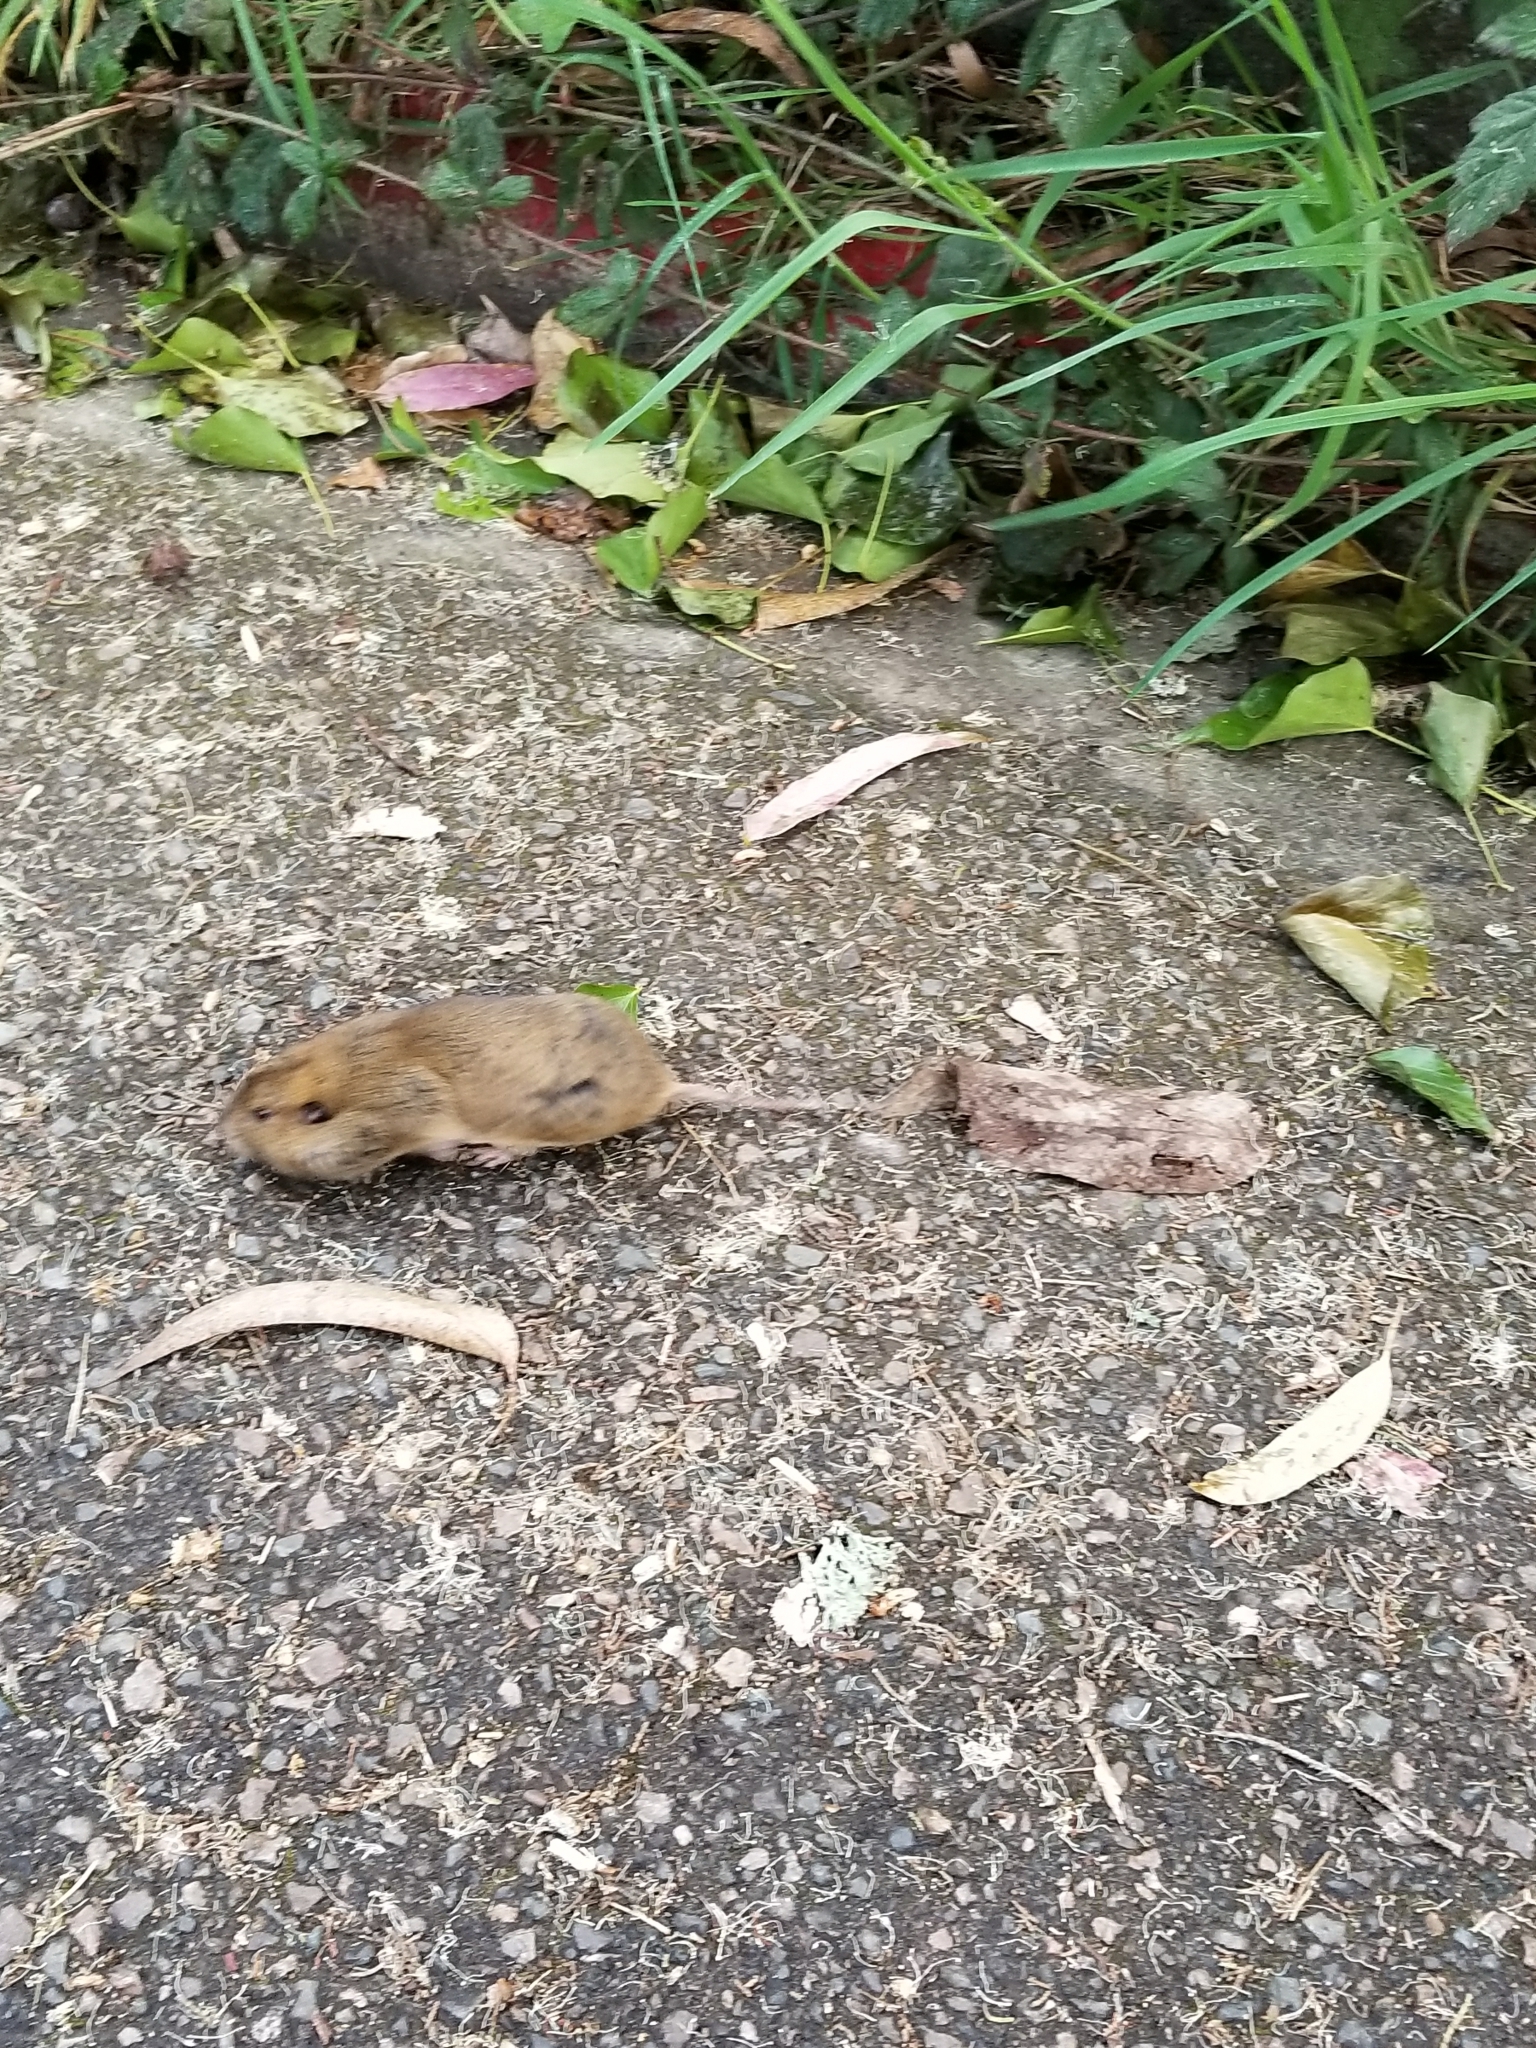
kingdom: Animalia
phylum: Chordata
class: Mammalia
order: Rodentia
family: Geomyidae
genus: Thomomys
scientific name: Thomomys bottae
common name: Botta's pocket gopher
